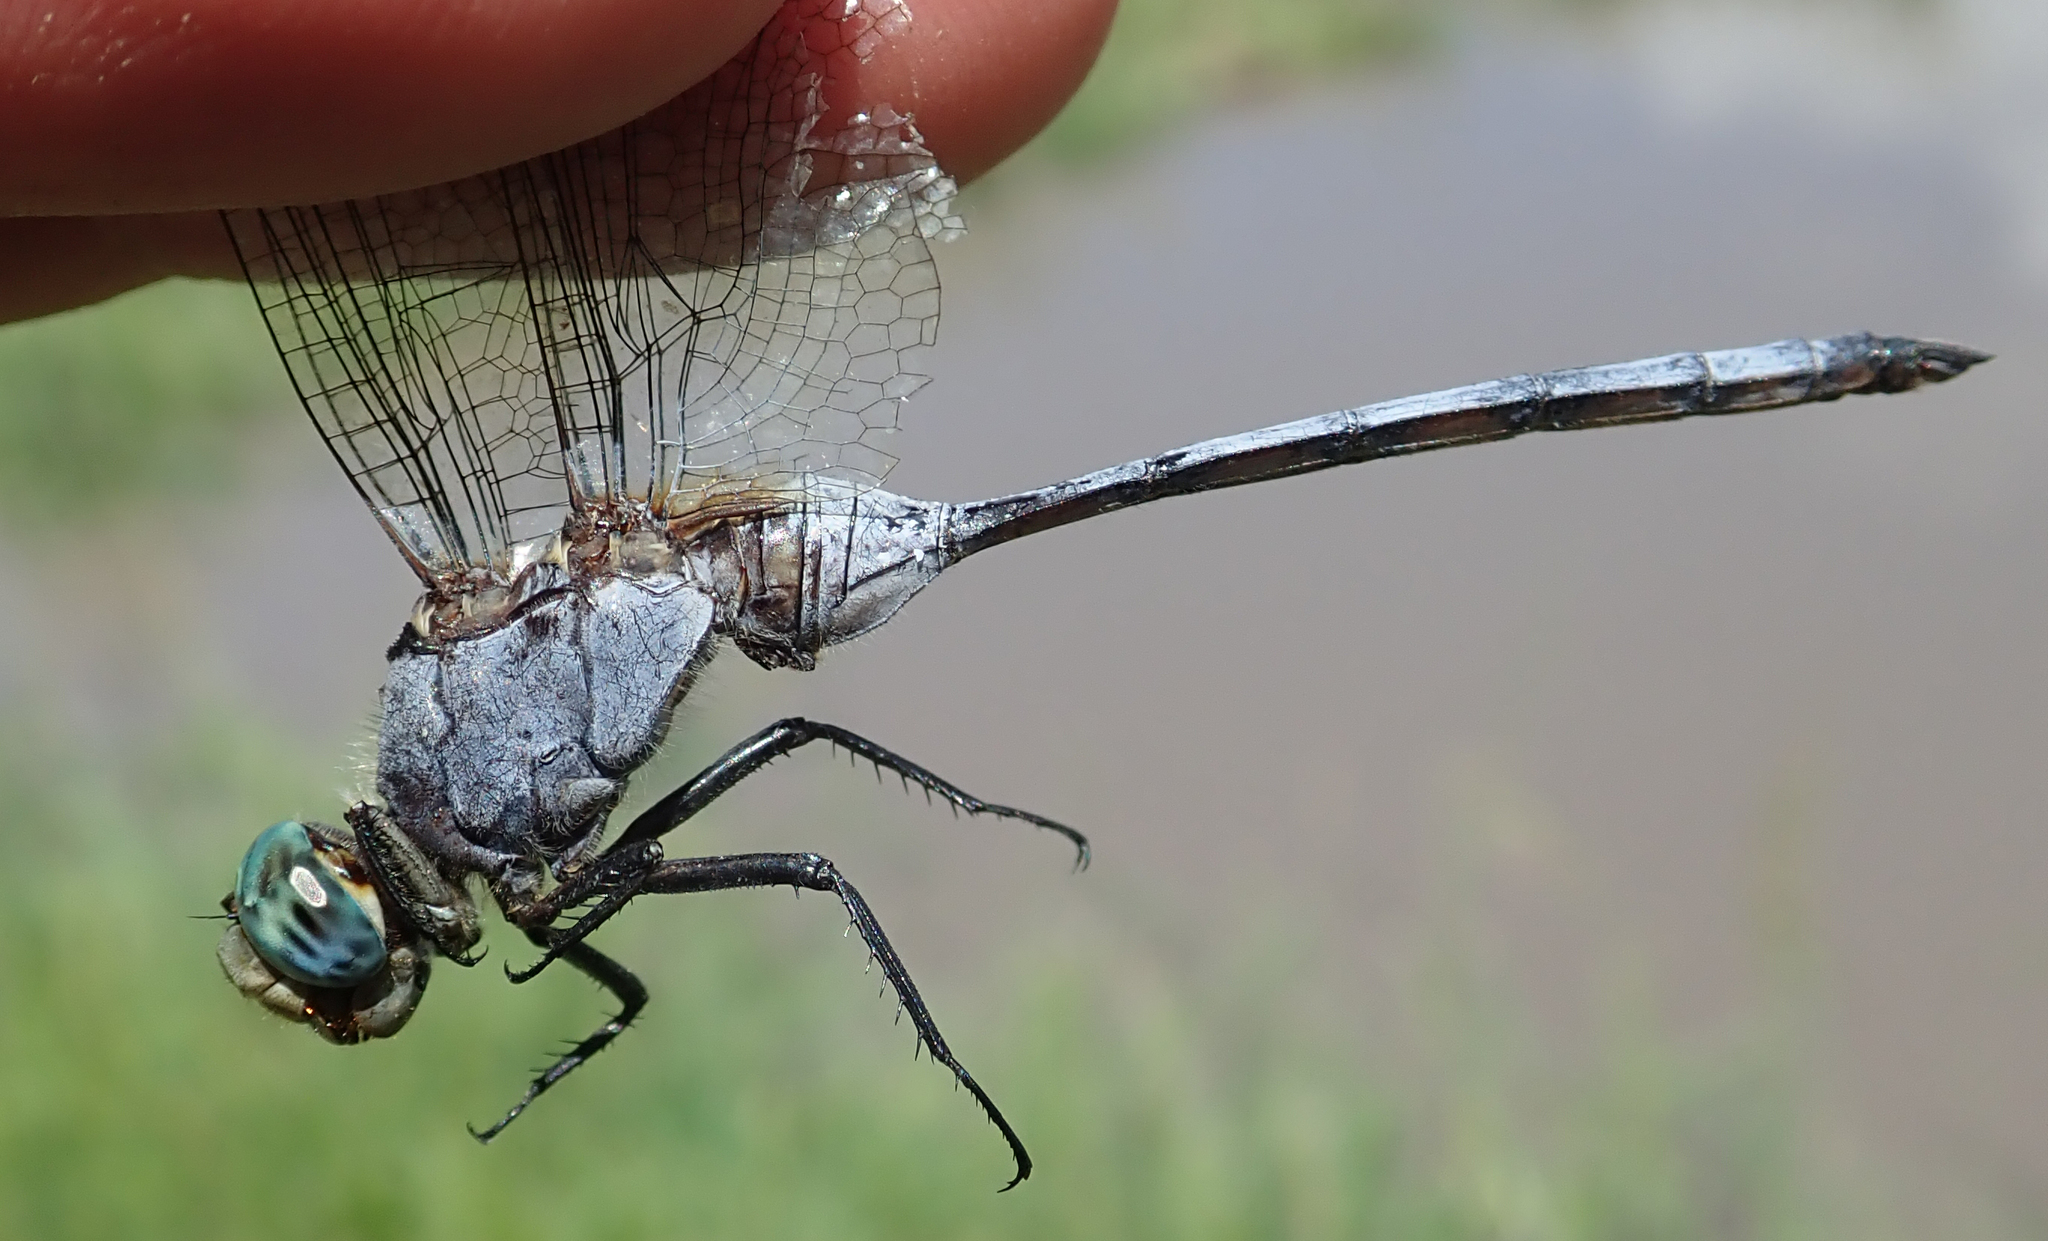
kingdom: Animalia
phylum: Arthropoda
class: Insecta
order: Odonata
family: Libellulidae
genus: Orthetrum
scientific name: Orthetrum brachiale
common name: Banded skimmer
